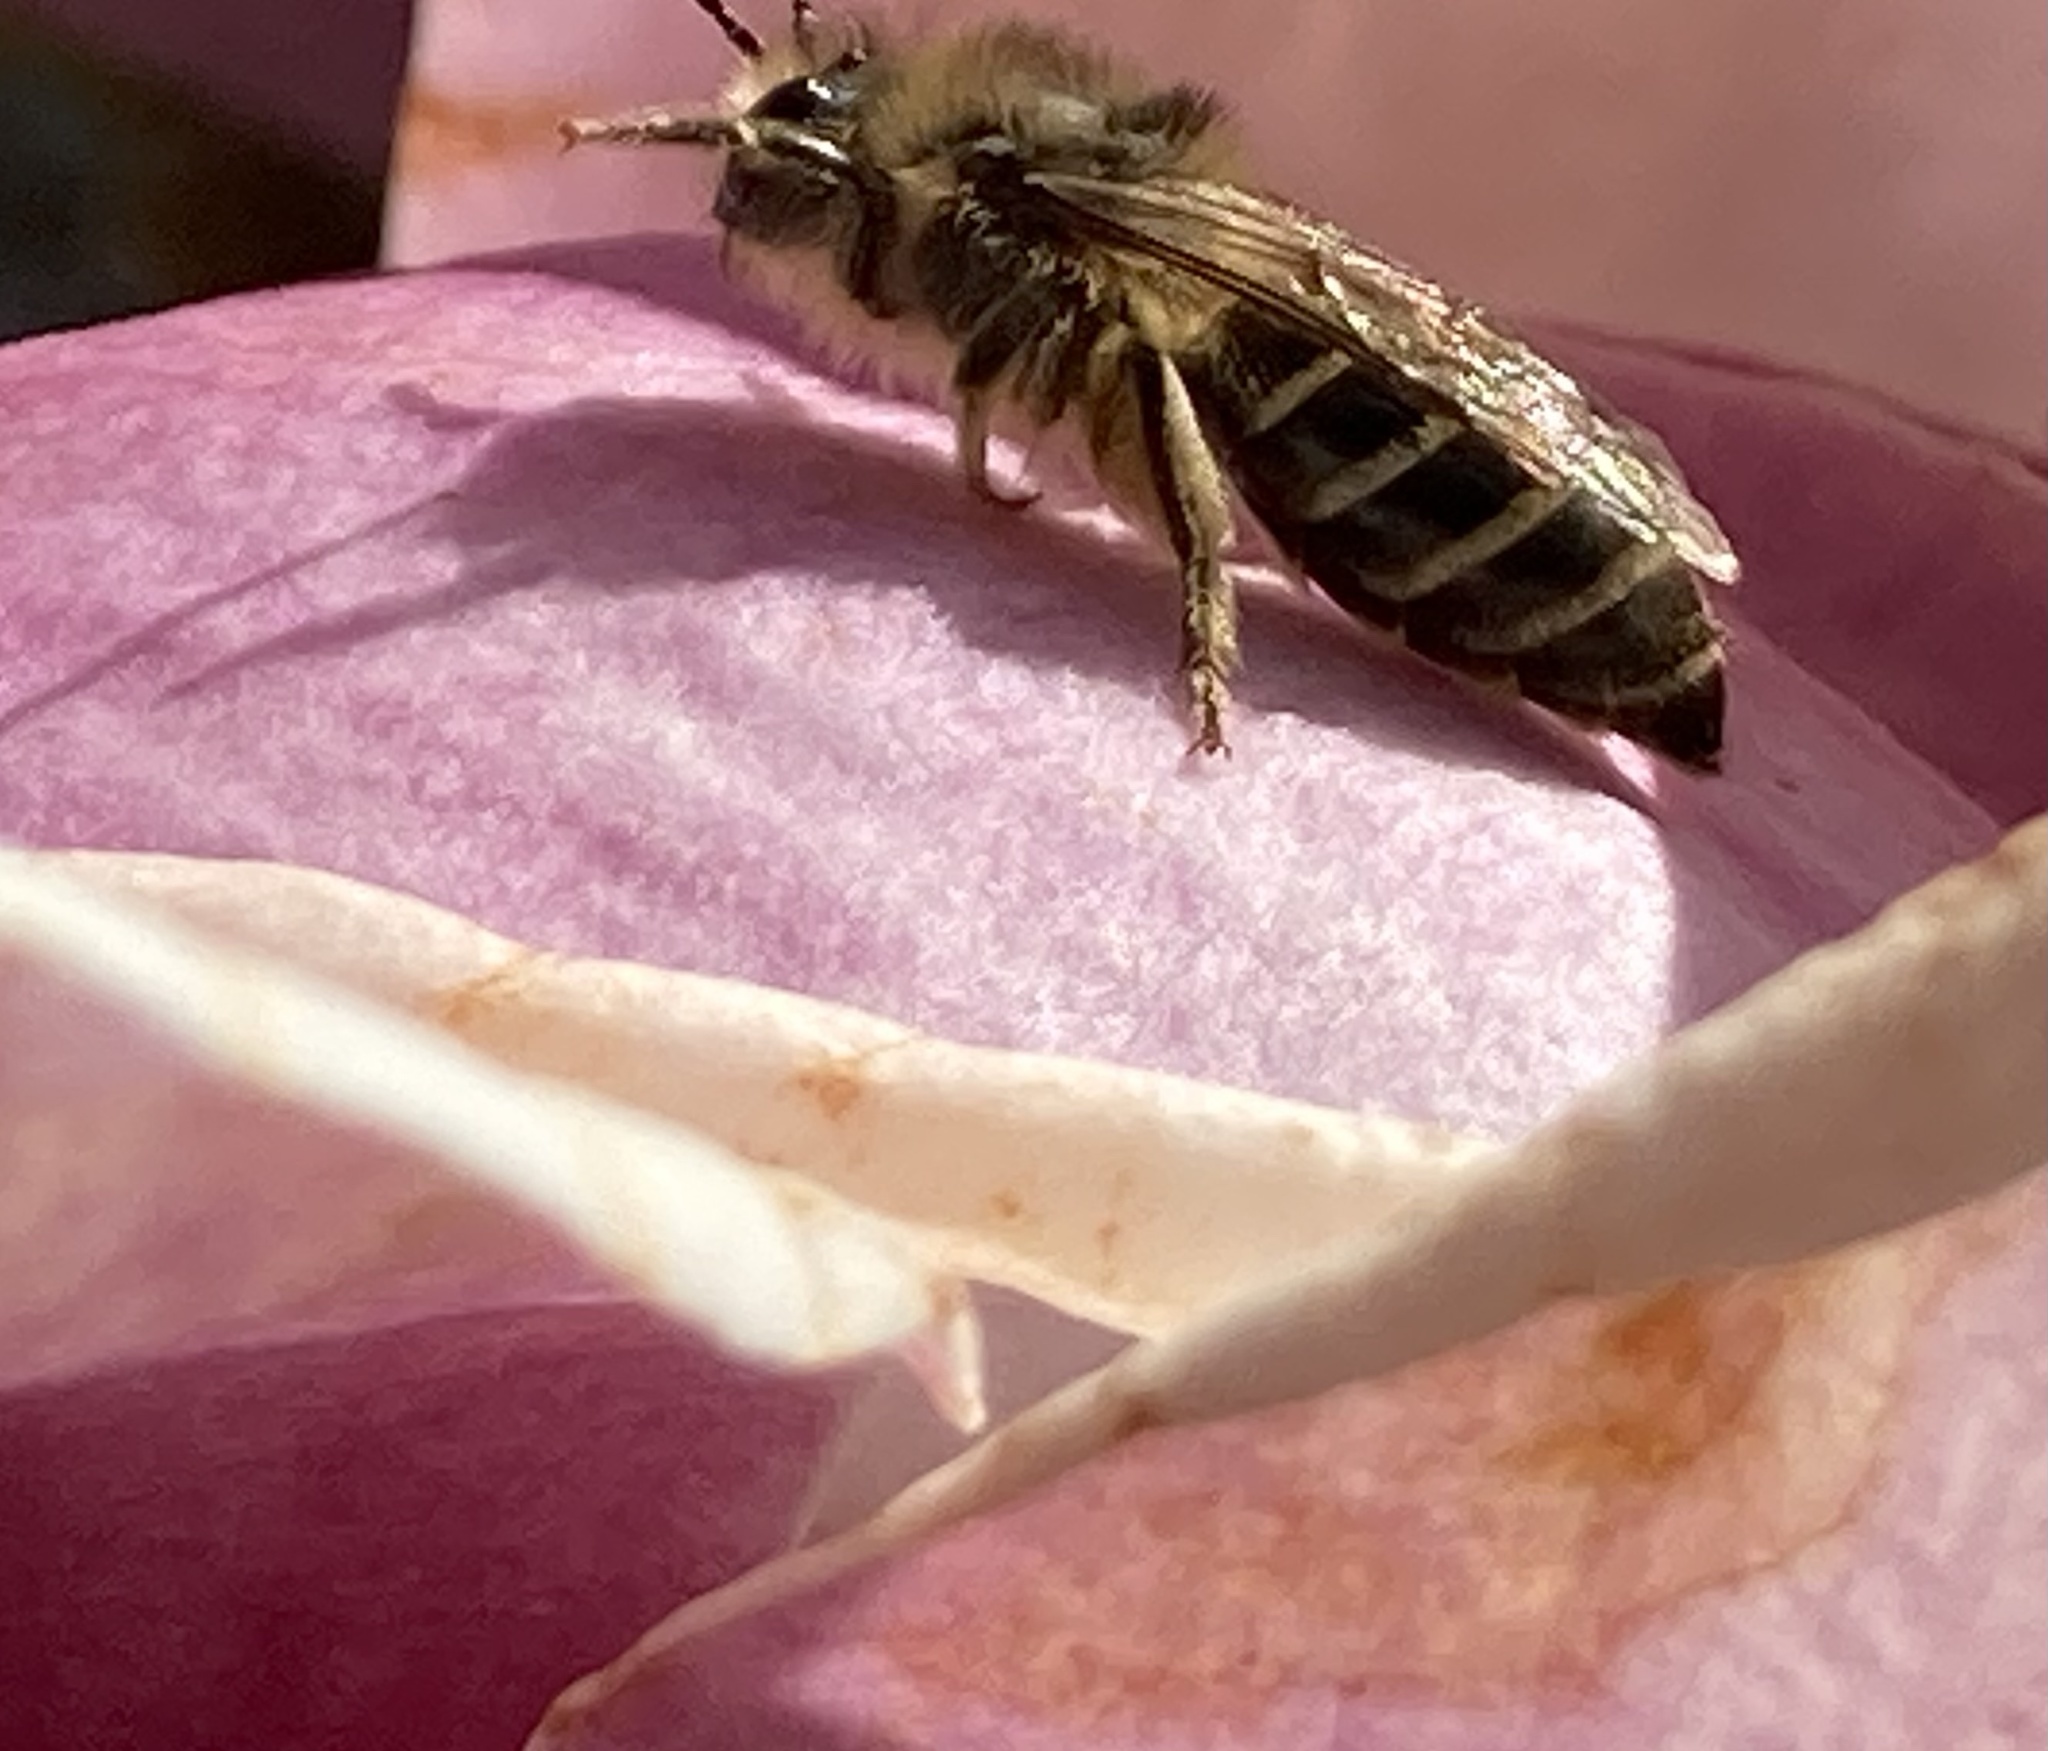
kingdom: Animalia
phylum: Arthropoda
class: Insecta
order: Hymenoptera
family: Colletidae
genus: Colletes
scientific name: Colletes inaequalis
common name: Unequal cellophane bee
